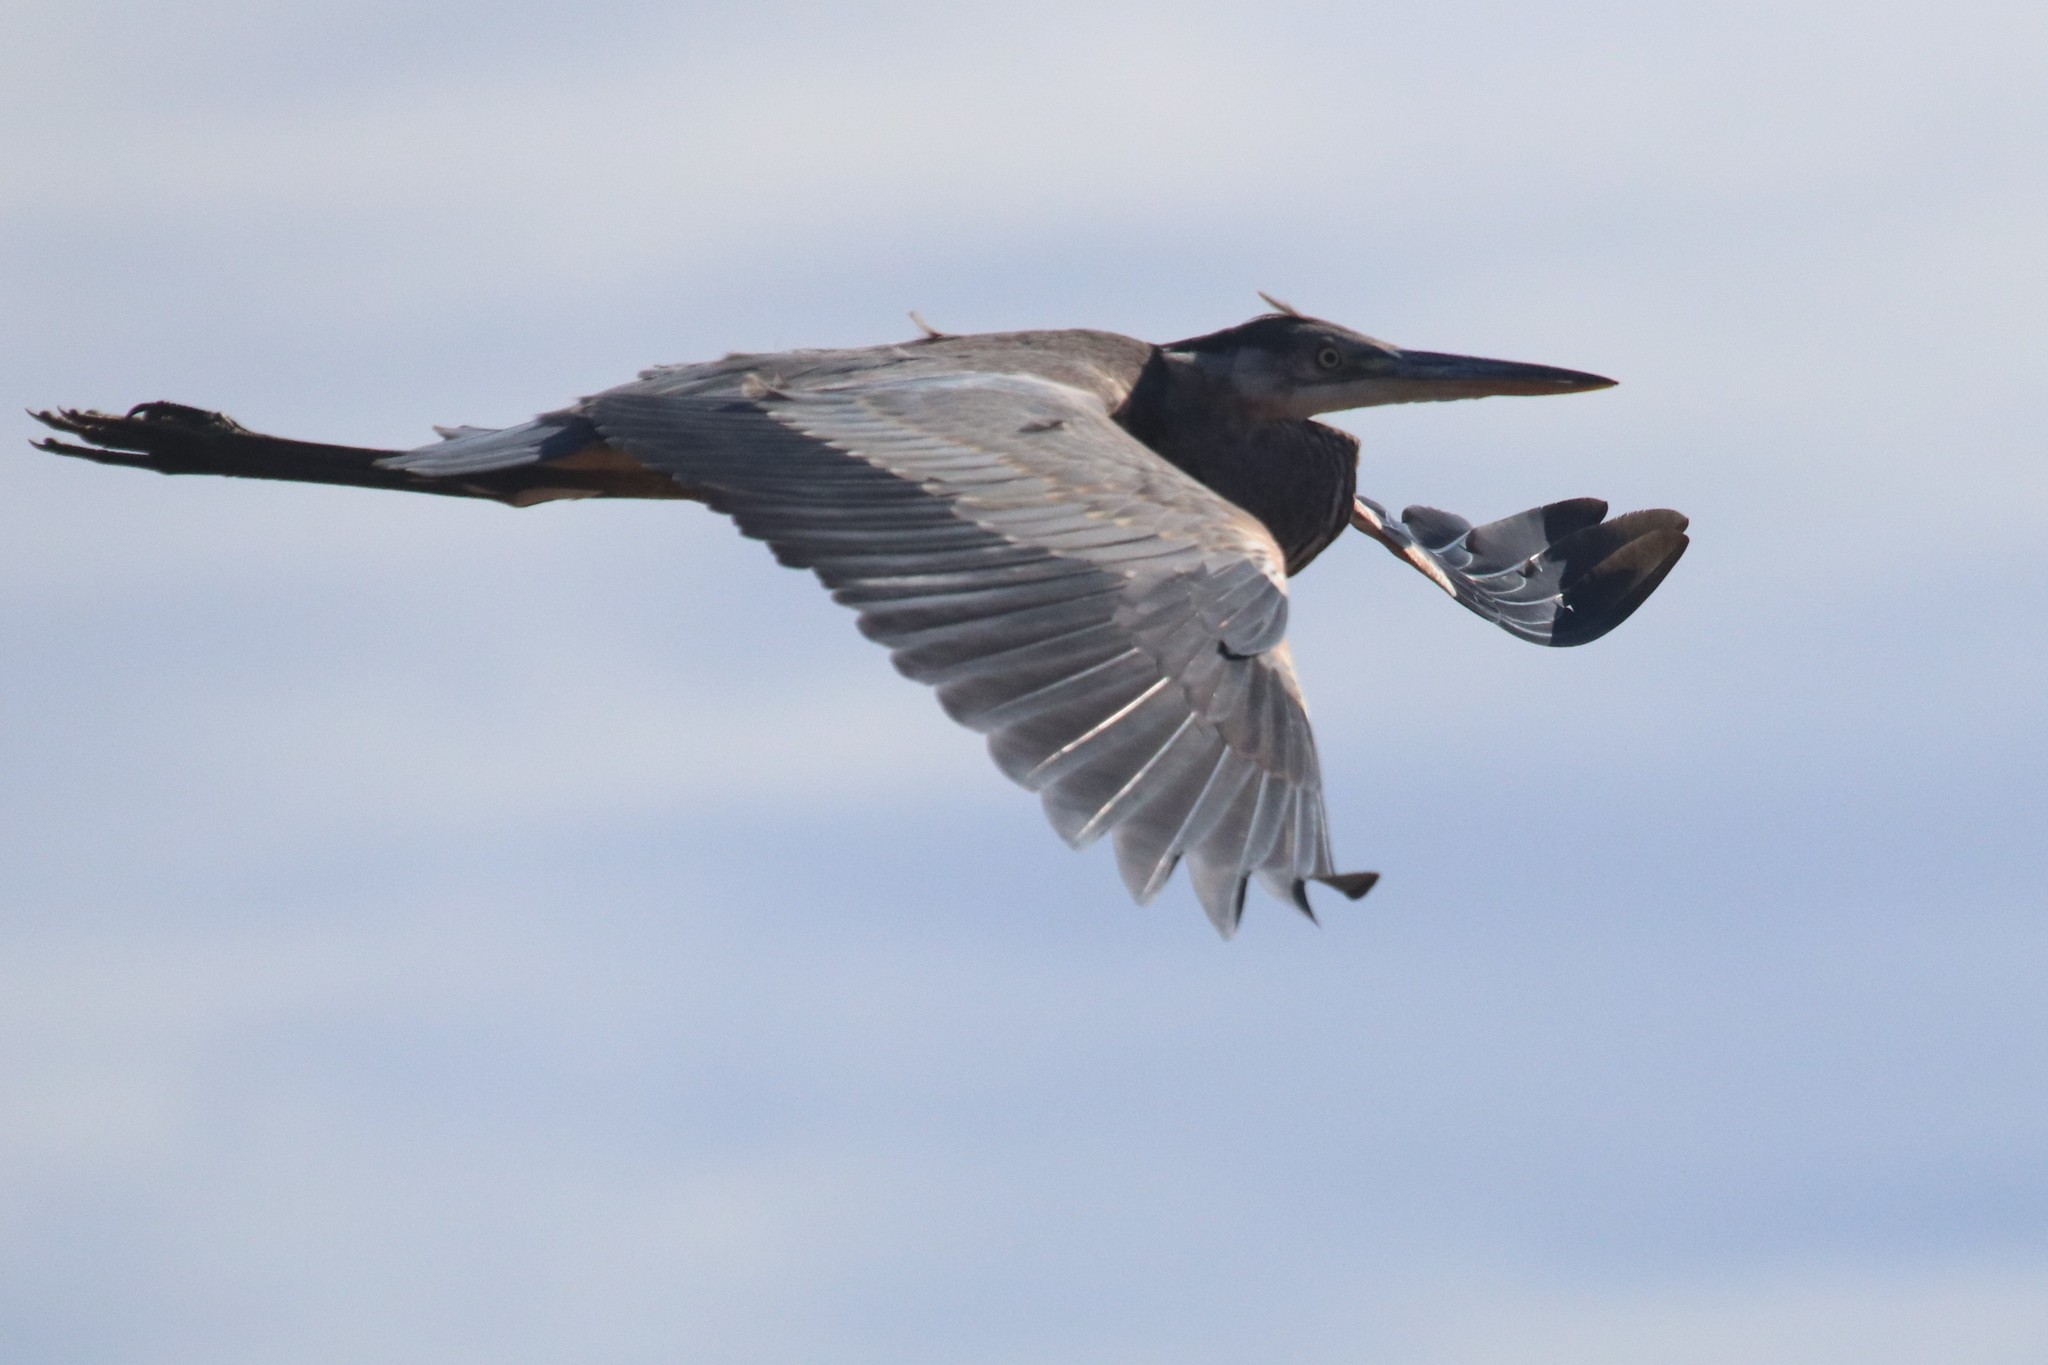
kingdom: Animalia
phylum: Chordata
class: Aves
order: Pelecaniformes
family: Ardeidae
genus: Ardea
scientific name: Ardea herodias
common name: Great blue heron
